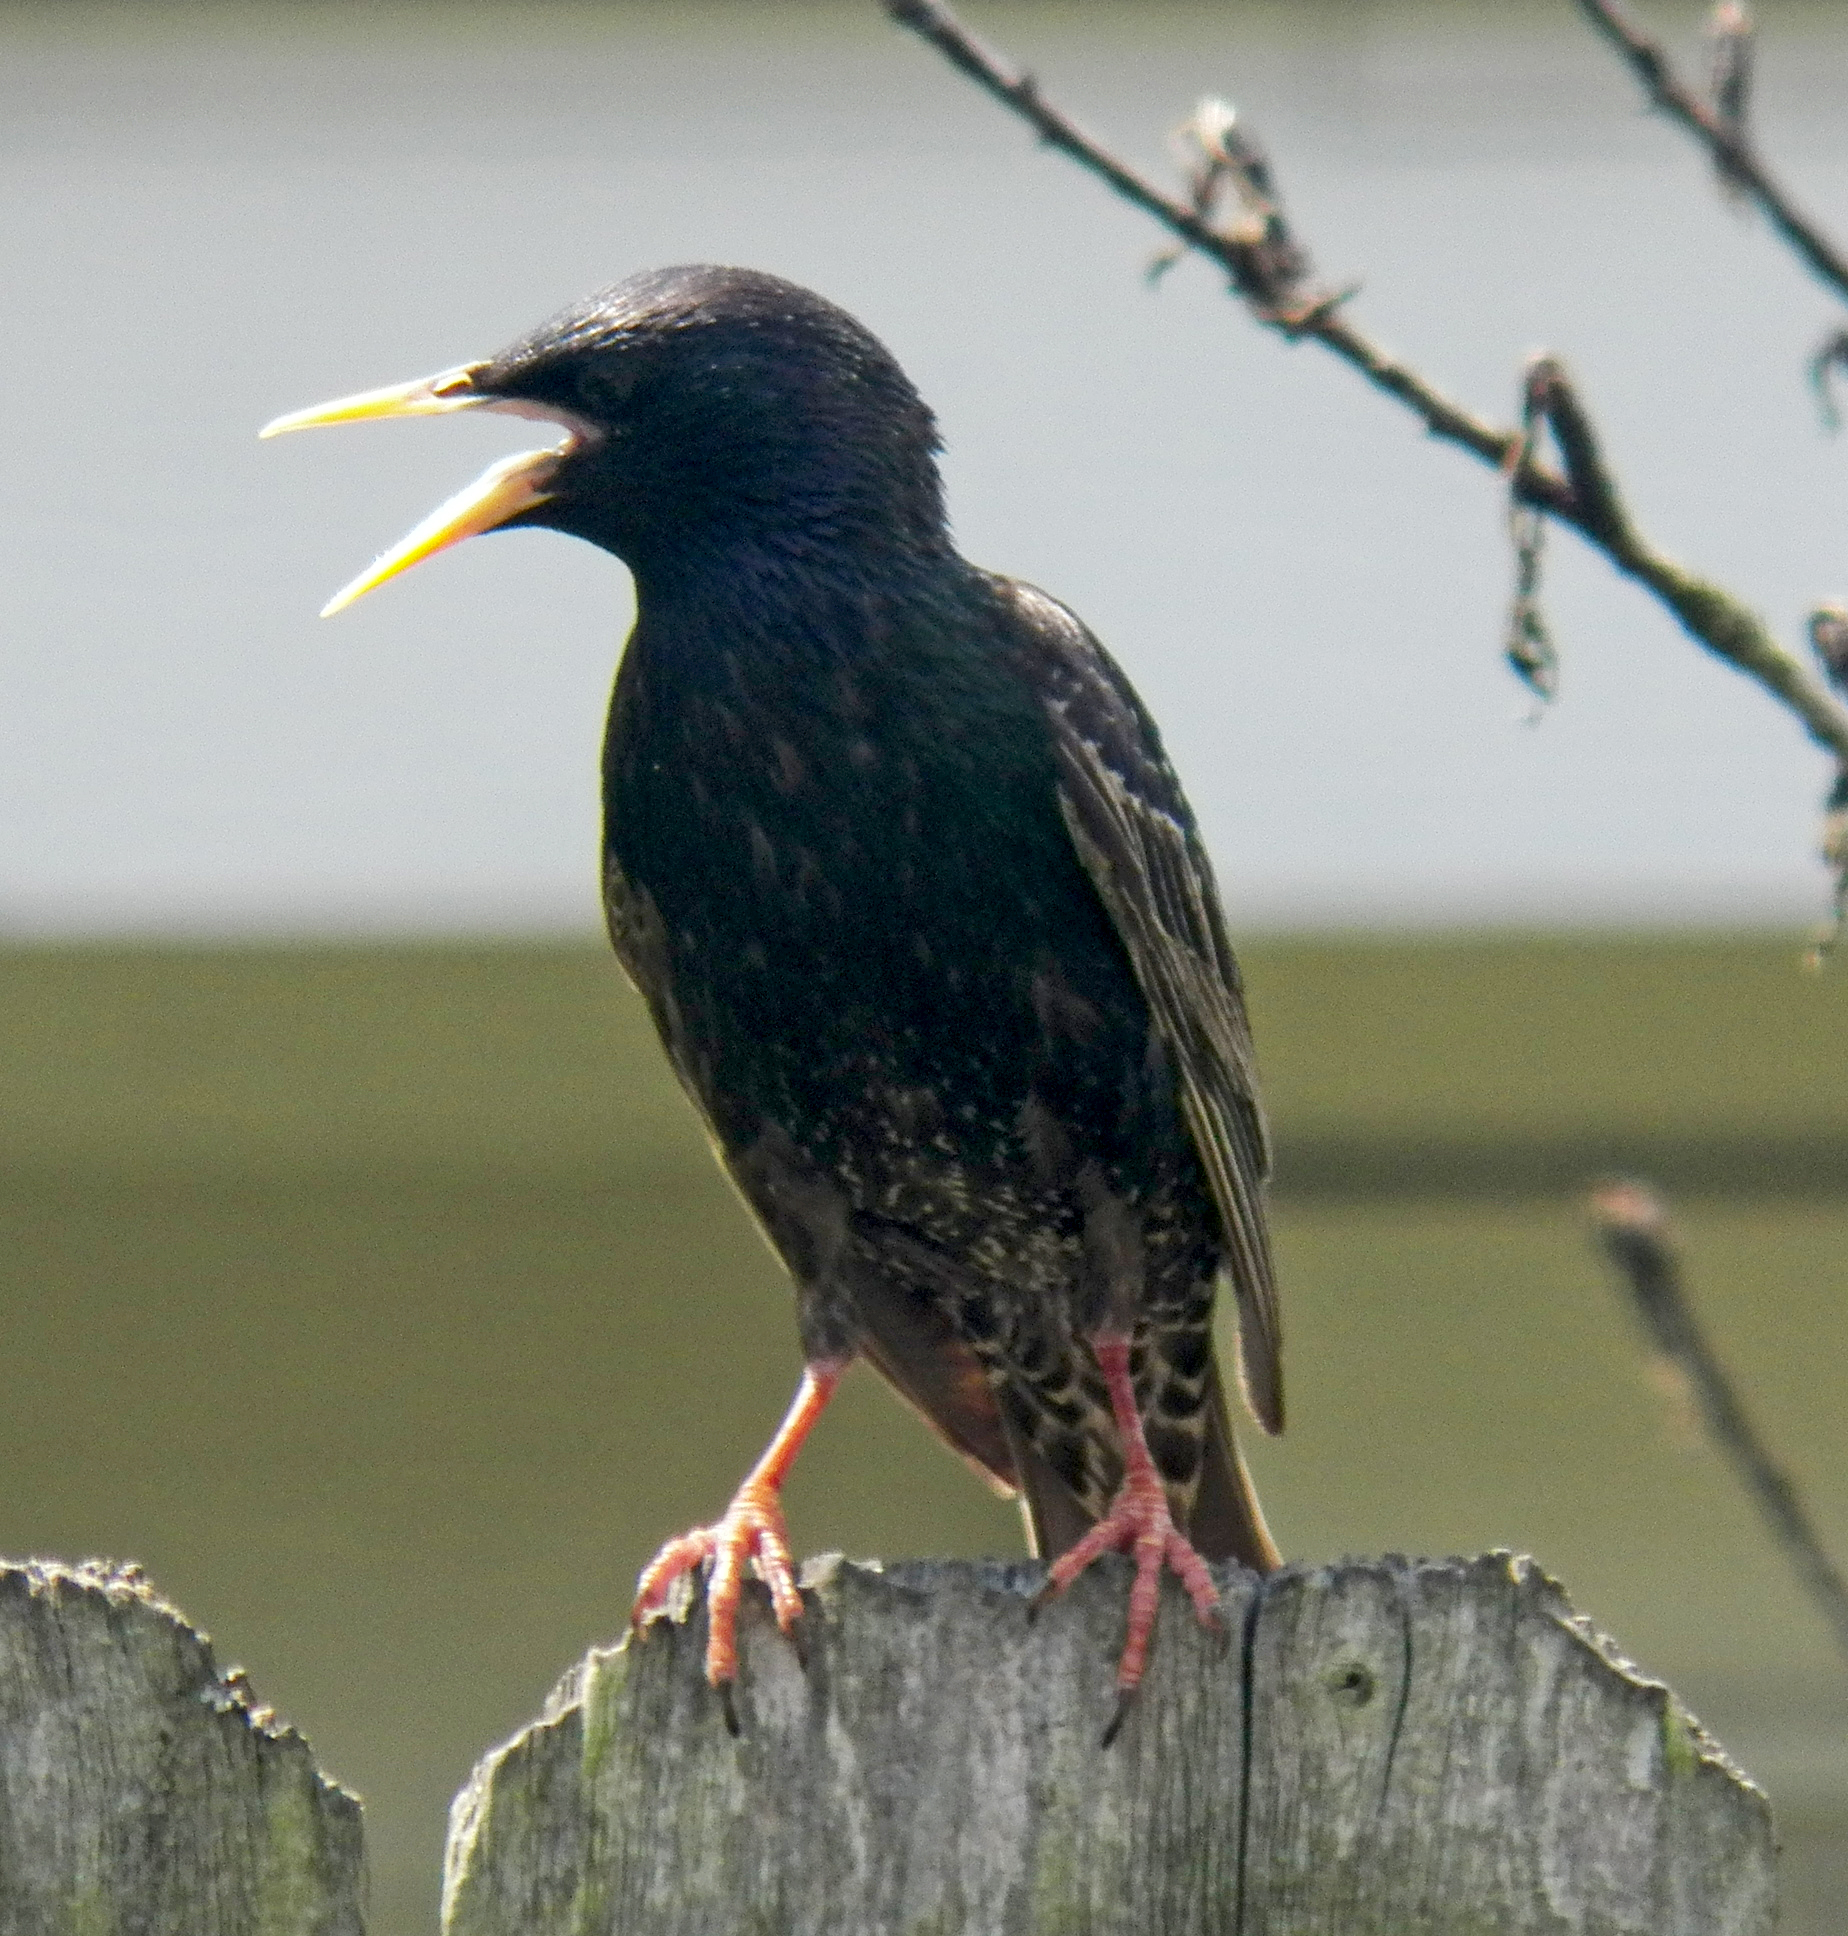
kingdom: Animalia
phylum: Chordata
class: Aves
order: Passeriformes
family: Sturnidae
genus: Sturnus
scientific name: Sturnus vulgaris
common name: Common starling
